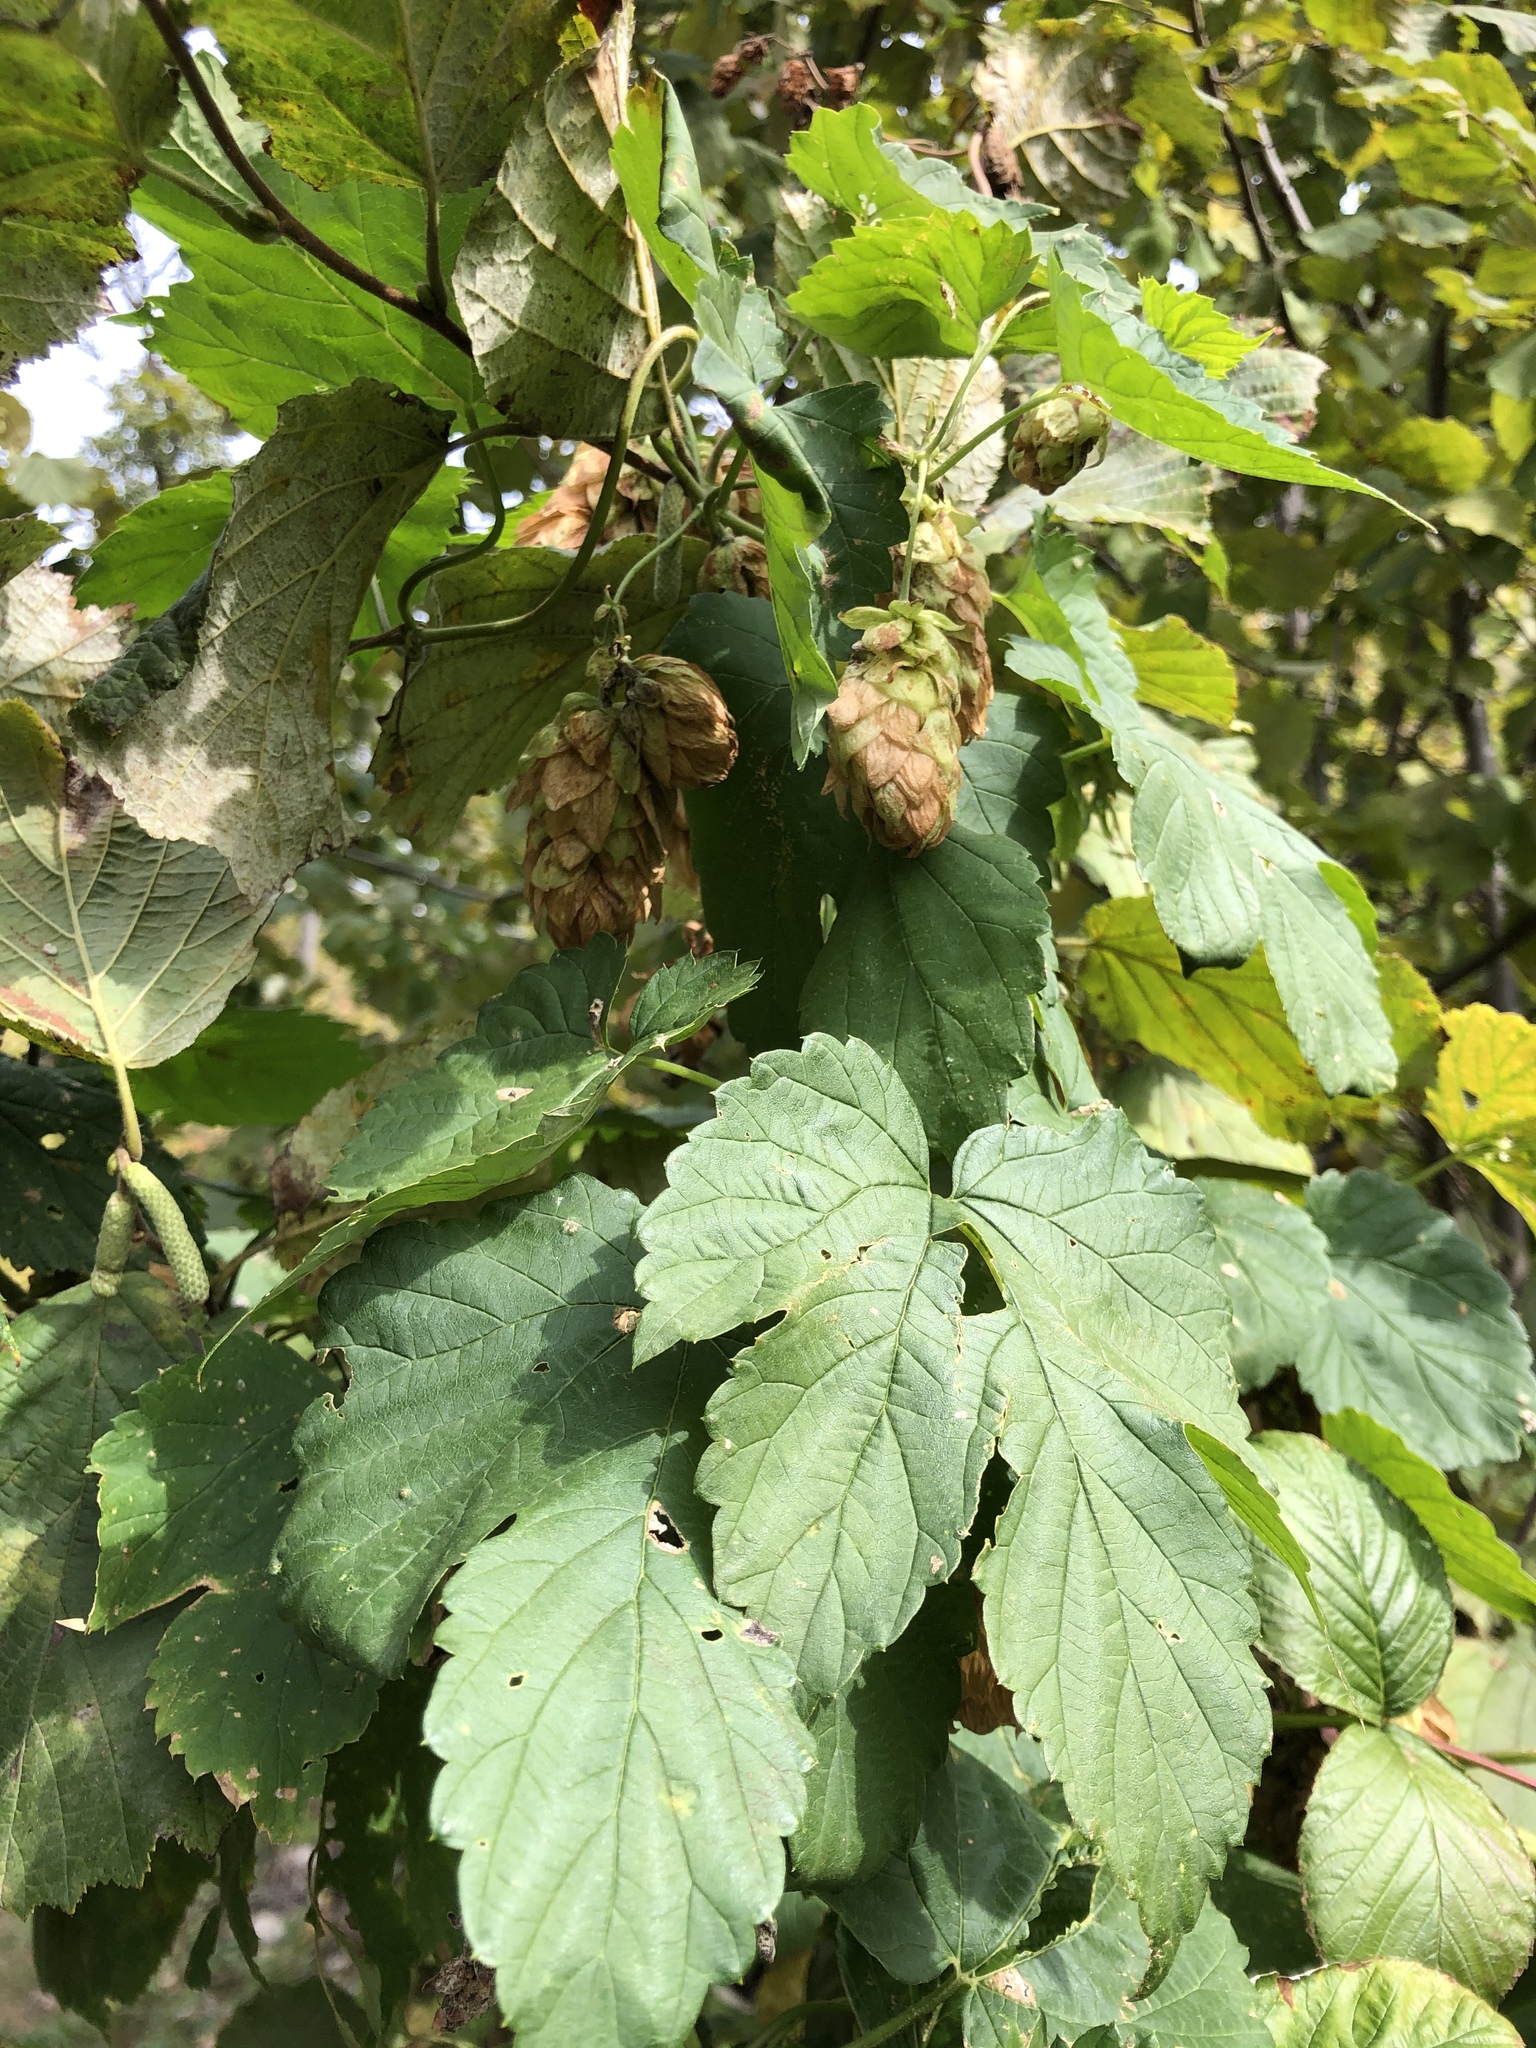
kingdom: Plantae
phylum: Tracheophyta
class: Magnoliopsida
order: Rosales
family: Cannabaceae
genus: Humulus
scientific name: Humulus lupulus
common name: Hop
